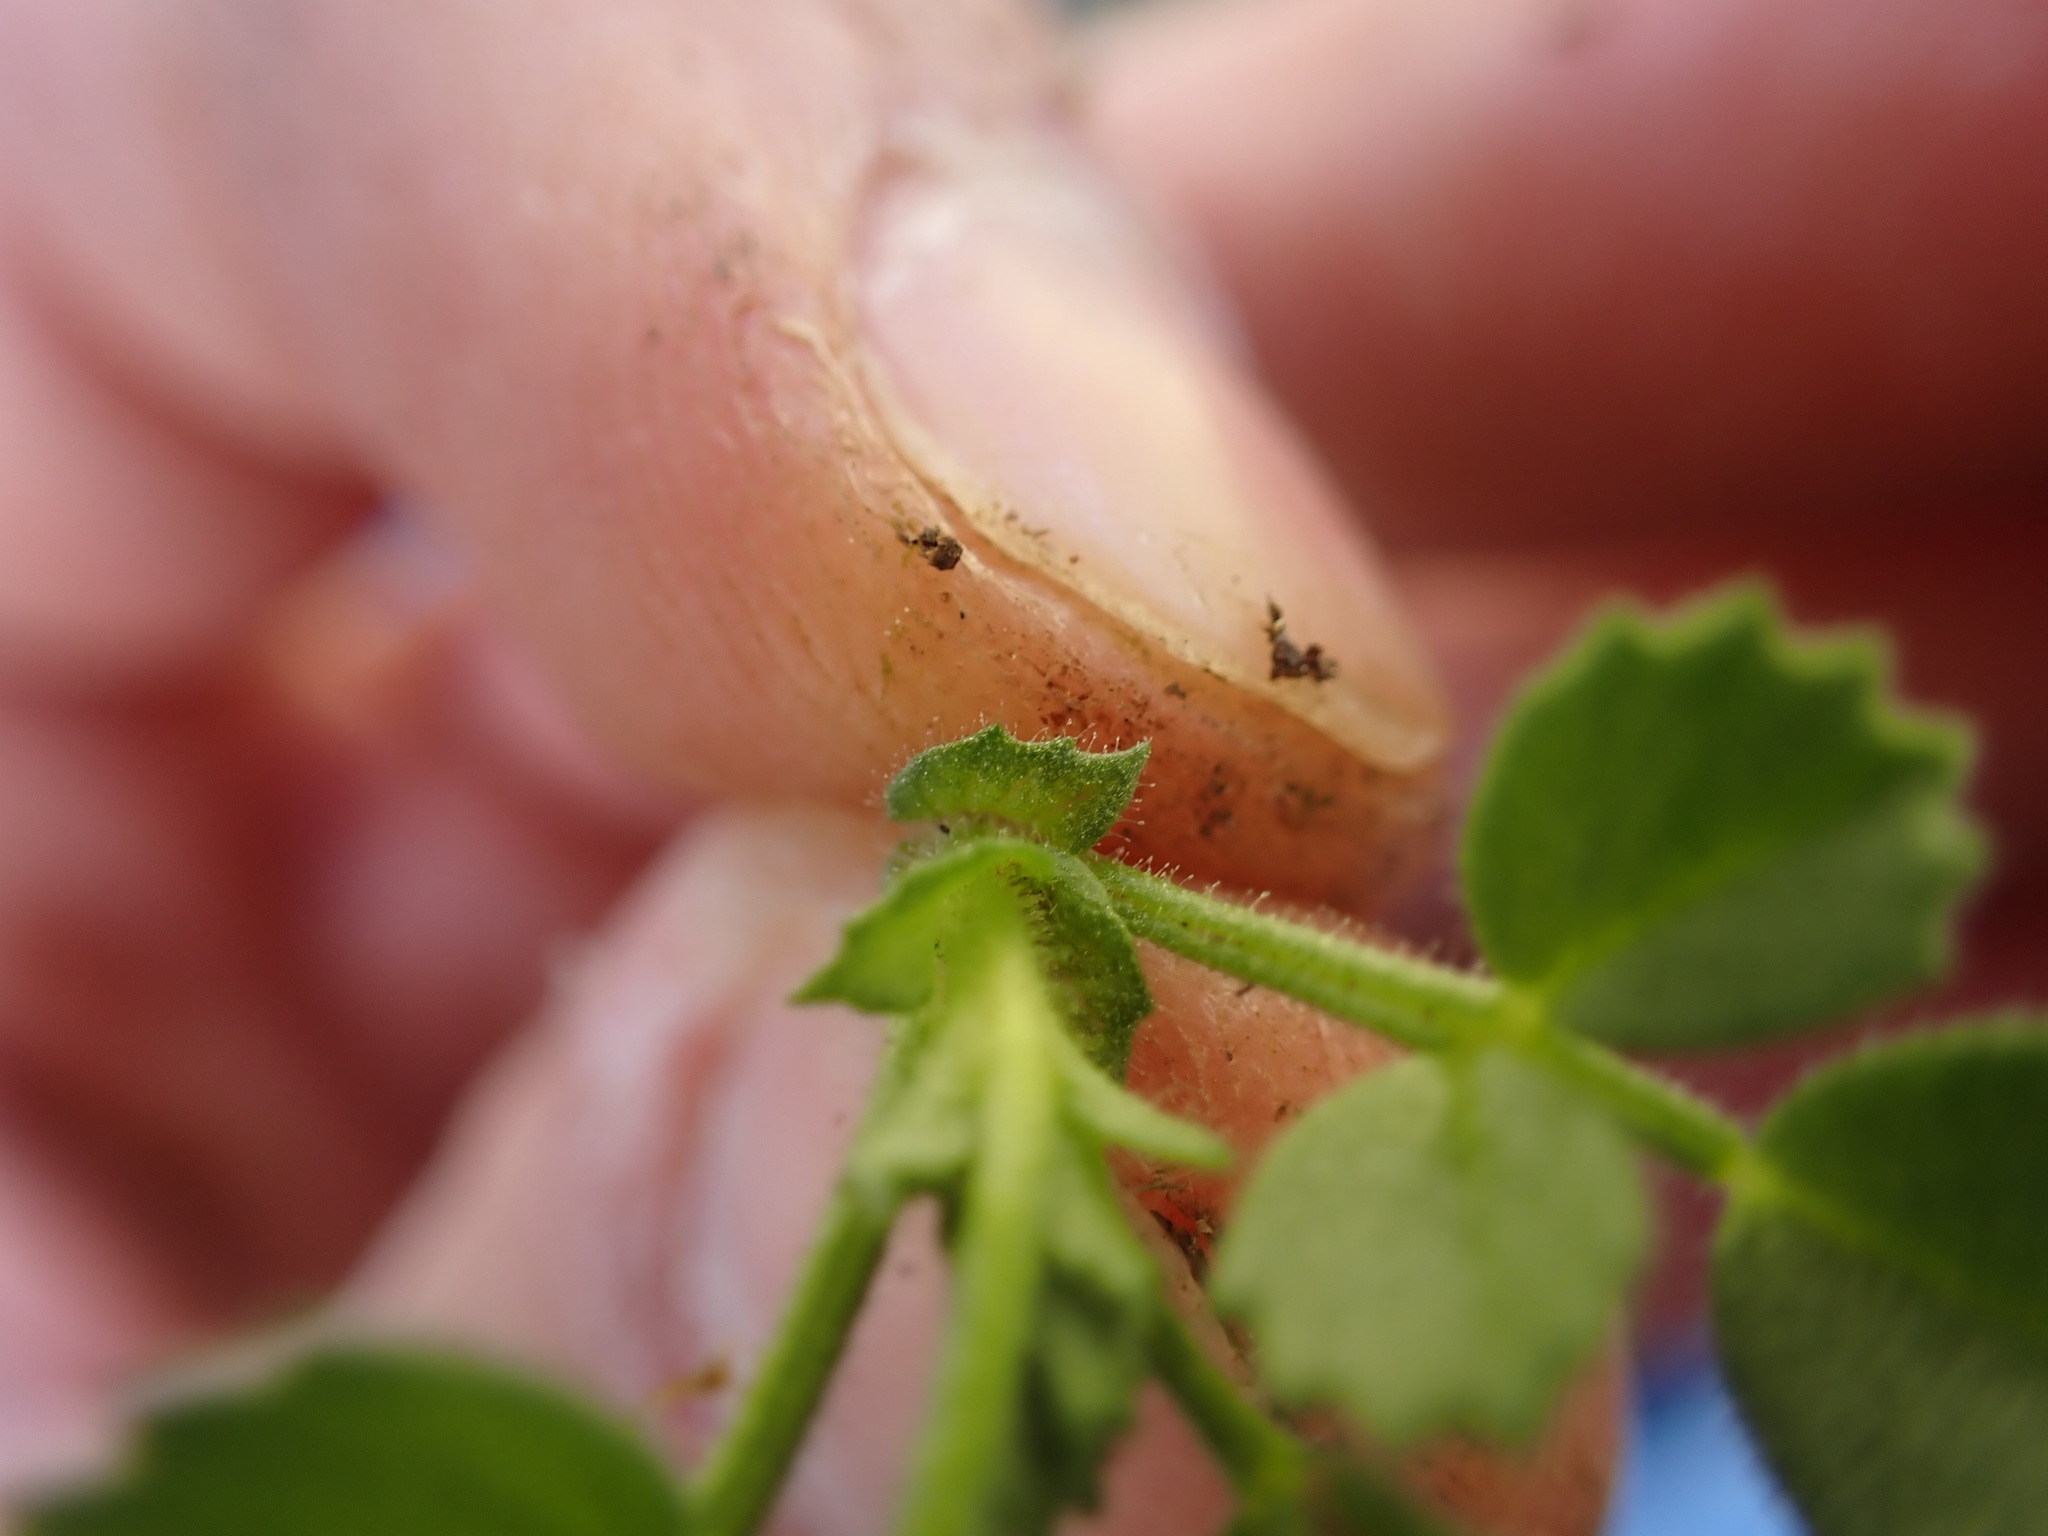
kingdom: Plantae
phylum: Tracheophyta
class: Magnoliopsida
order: Fabales
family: Fabaceae
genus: Ononis
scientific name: Ononis pusilla
